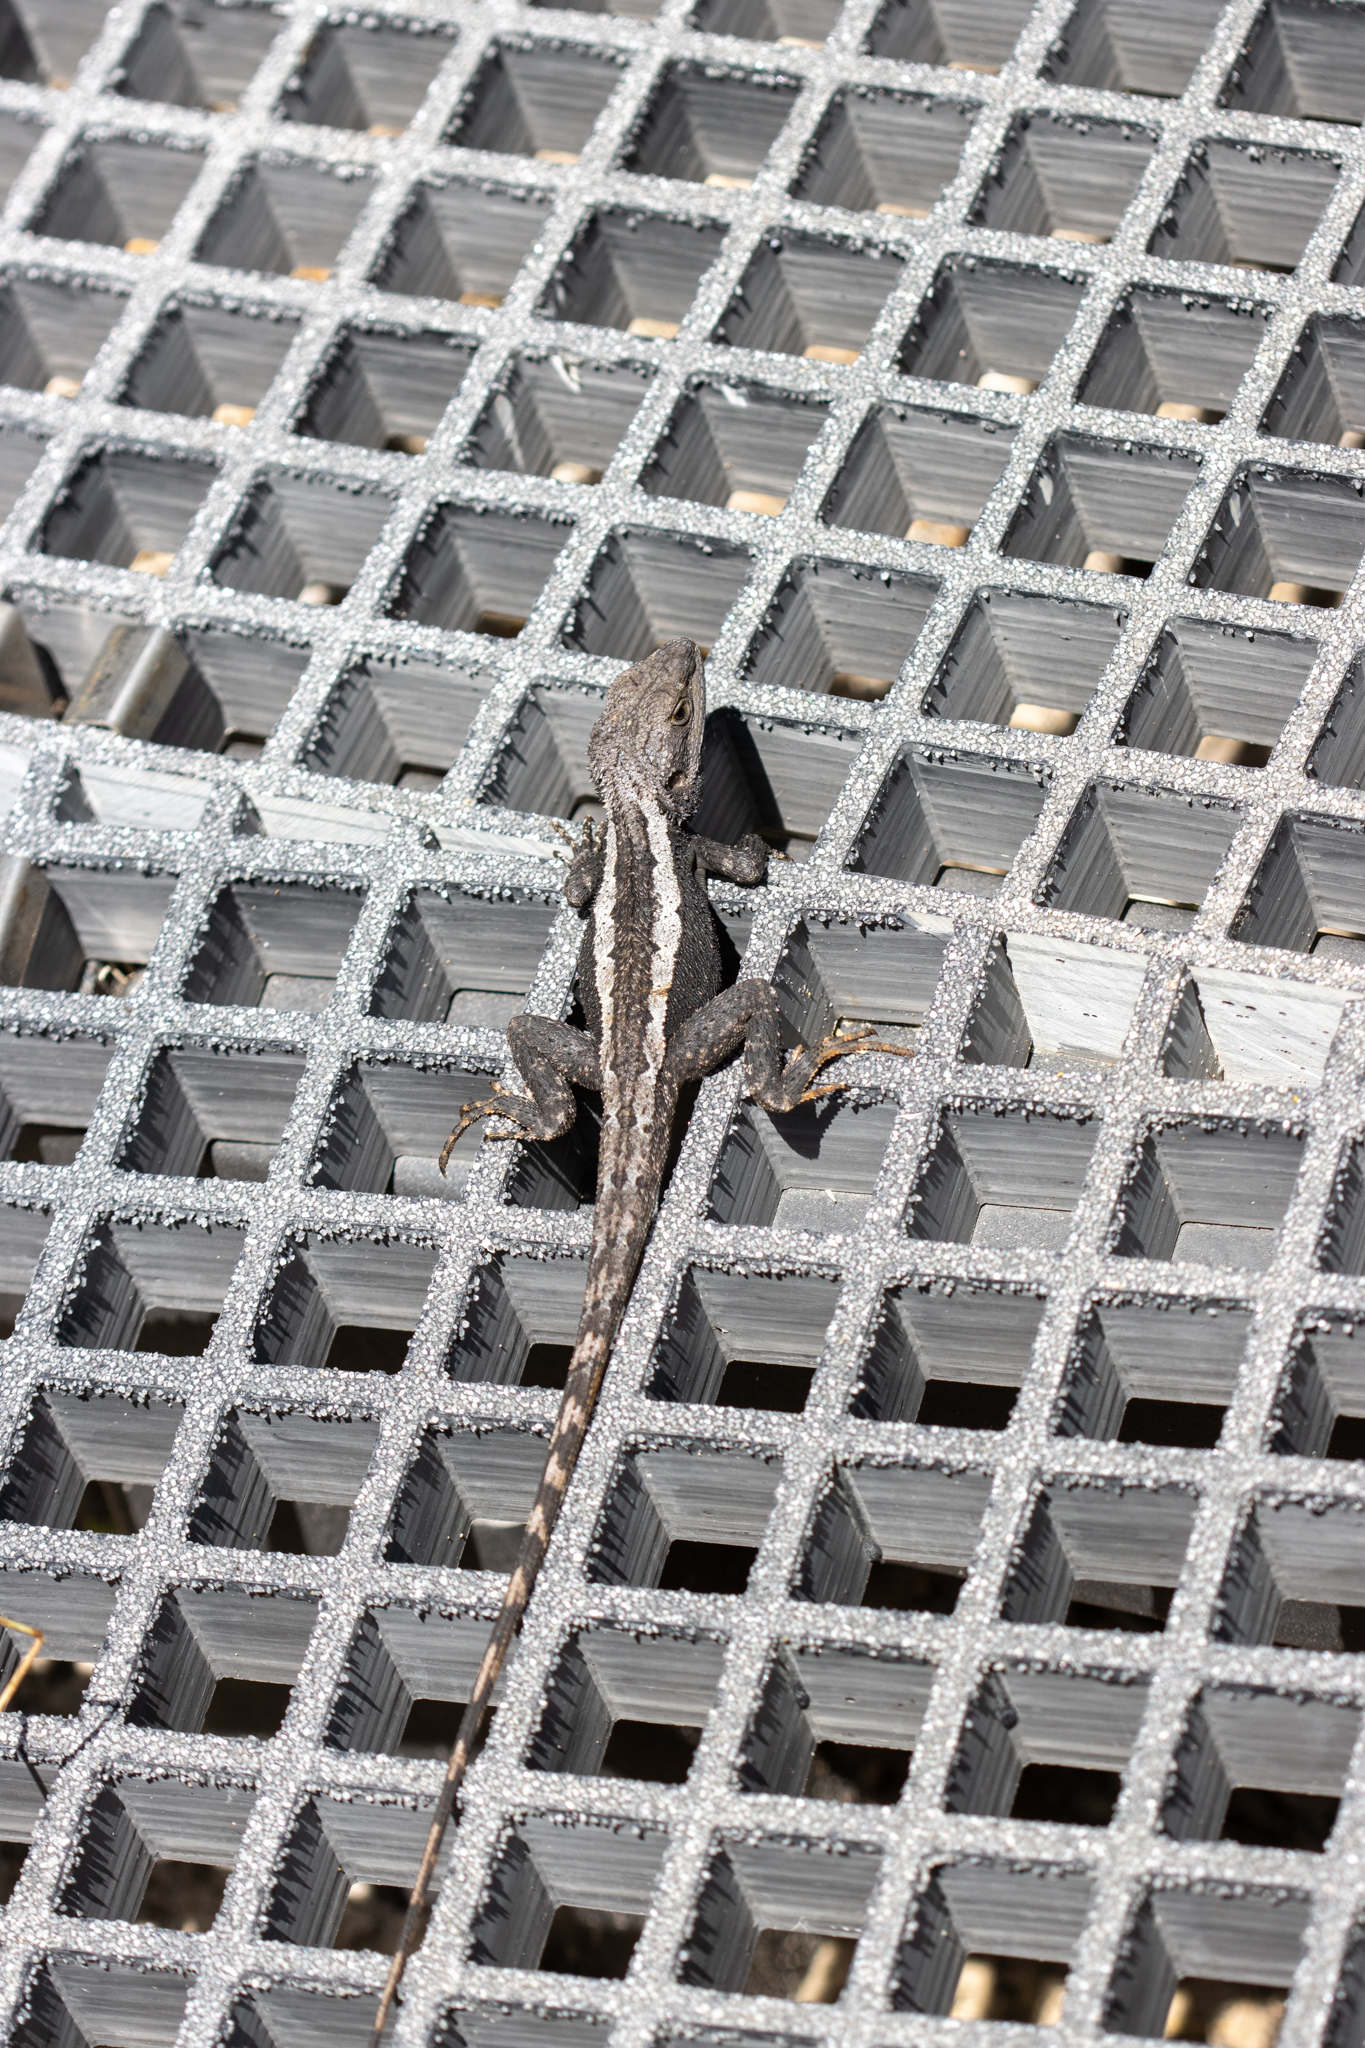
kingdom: Animalia
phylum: Chordata
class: Squamata
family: Agamidae
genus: Amphibolurus
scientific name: Amphibolurus muricatus
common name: Jacky lizard
